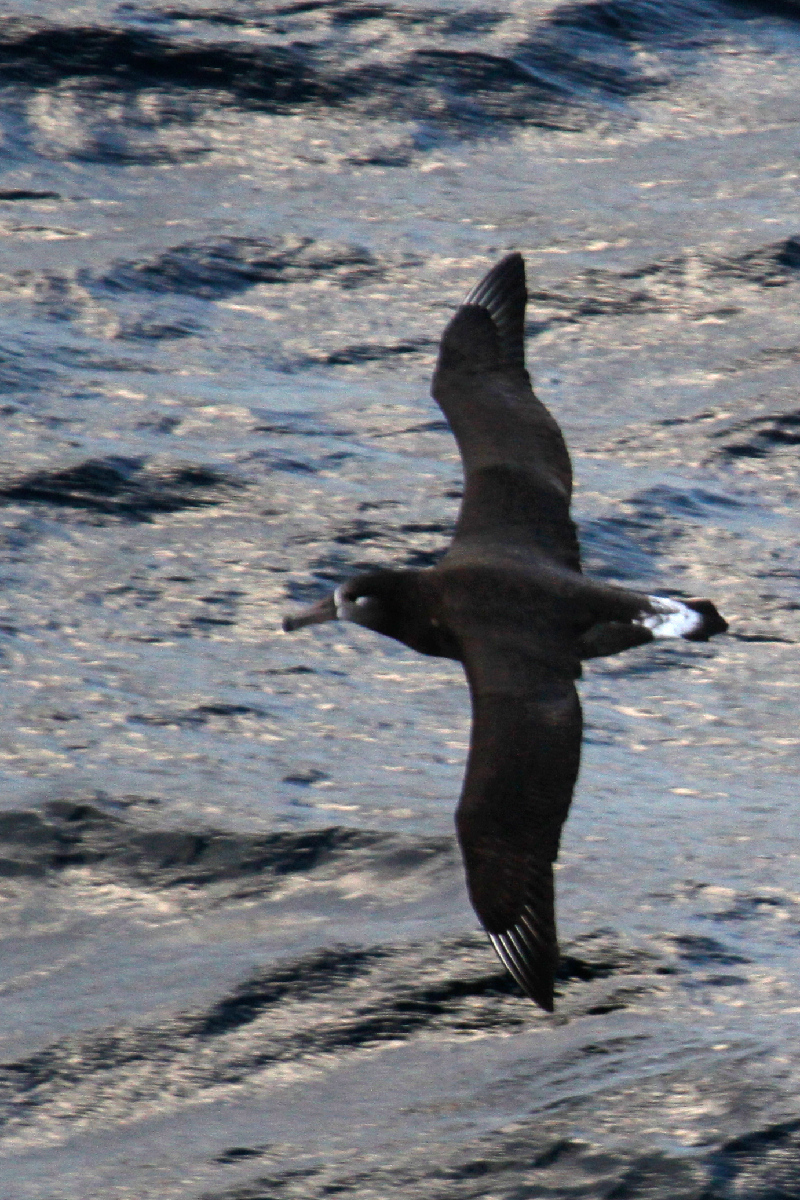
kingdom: Animalia
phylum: Chordata
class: Aves
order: Procellariiformes
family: Diomedeidae
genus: Phoebastria
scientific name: Phoebastria nigripes
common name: Black-footed albatross
